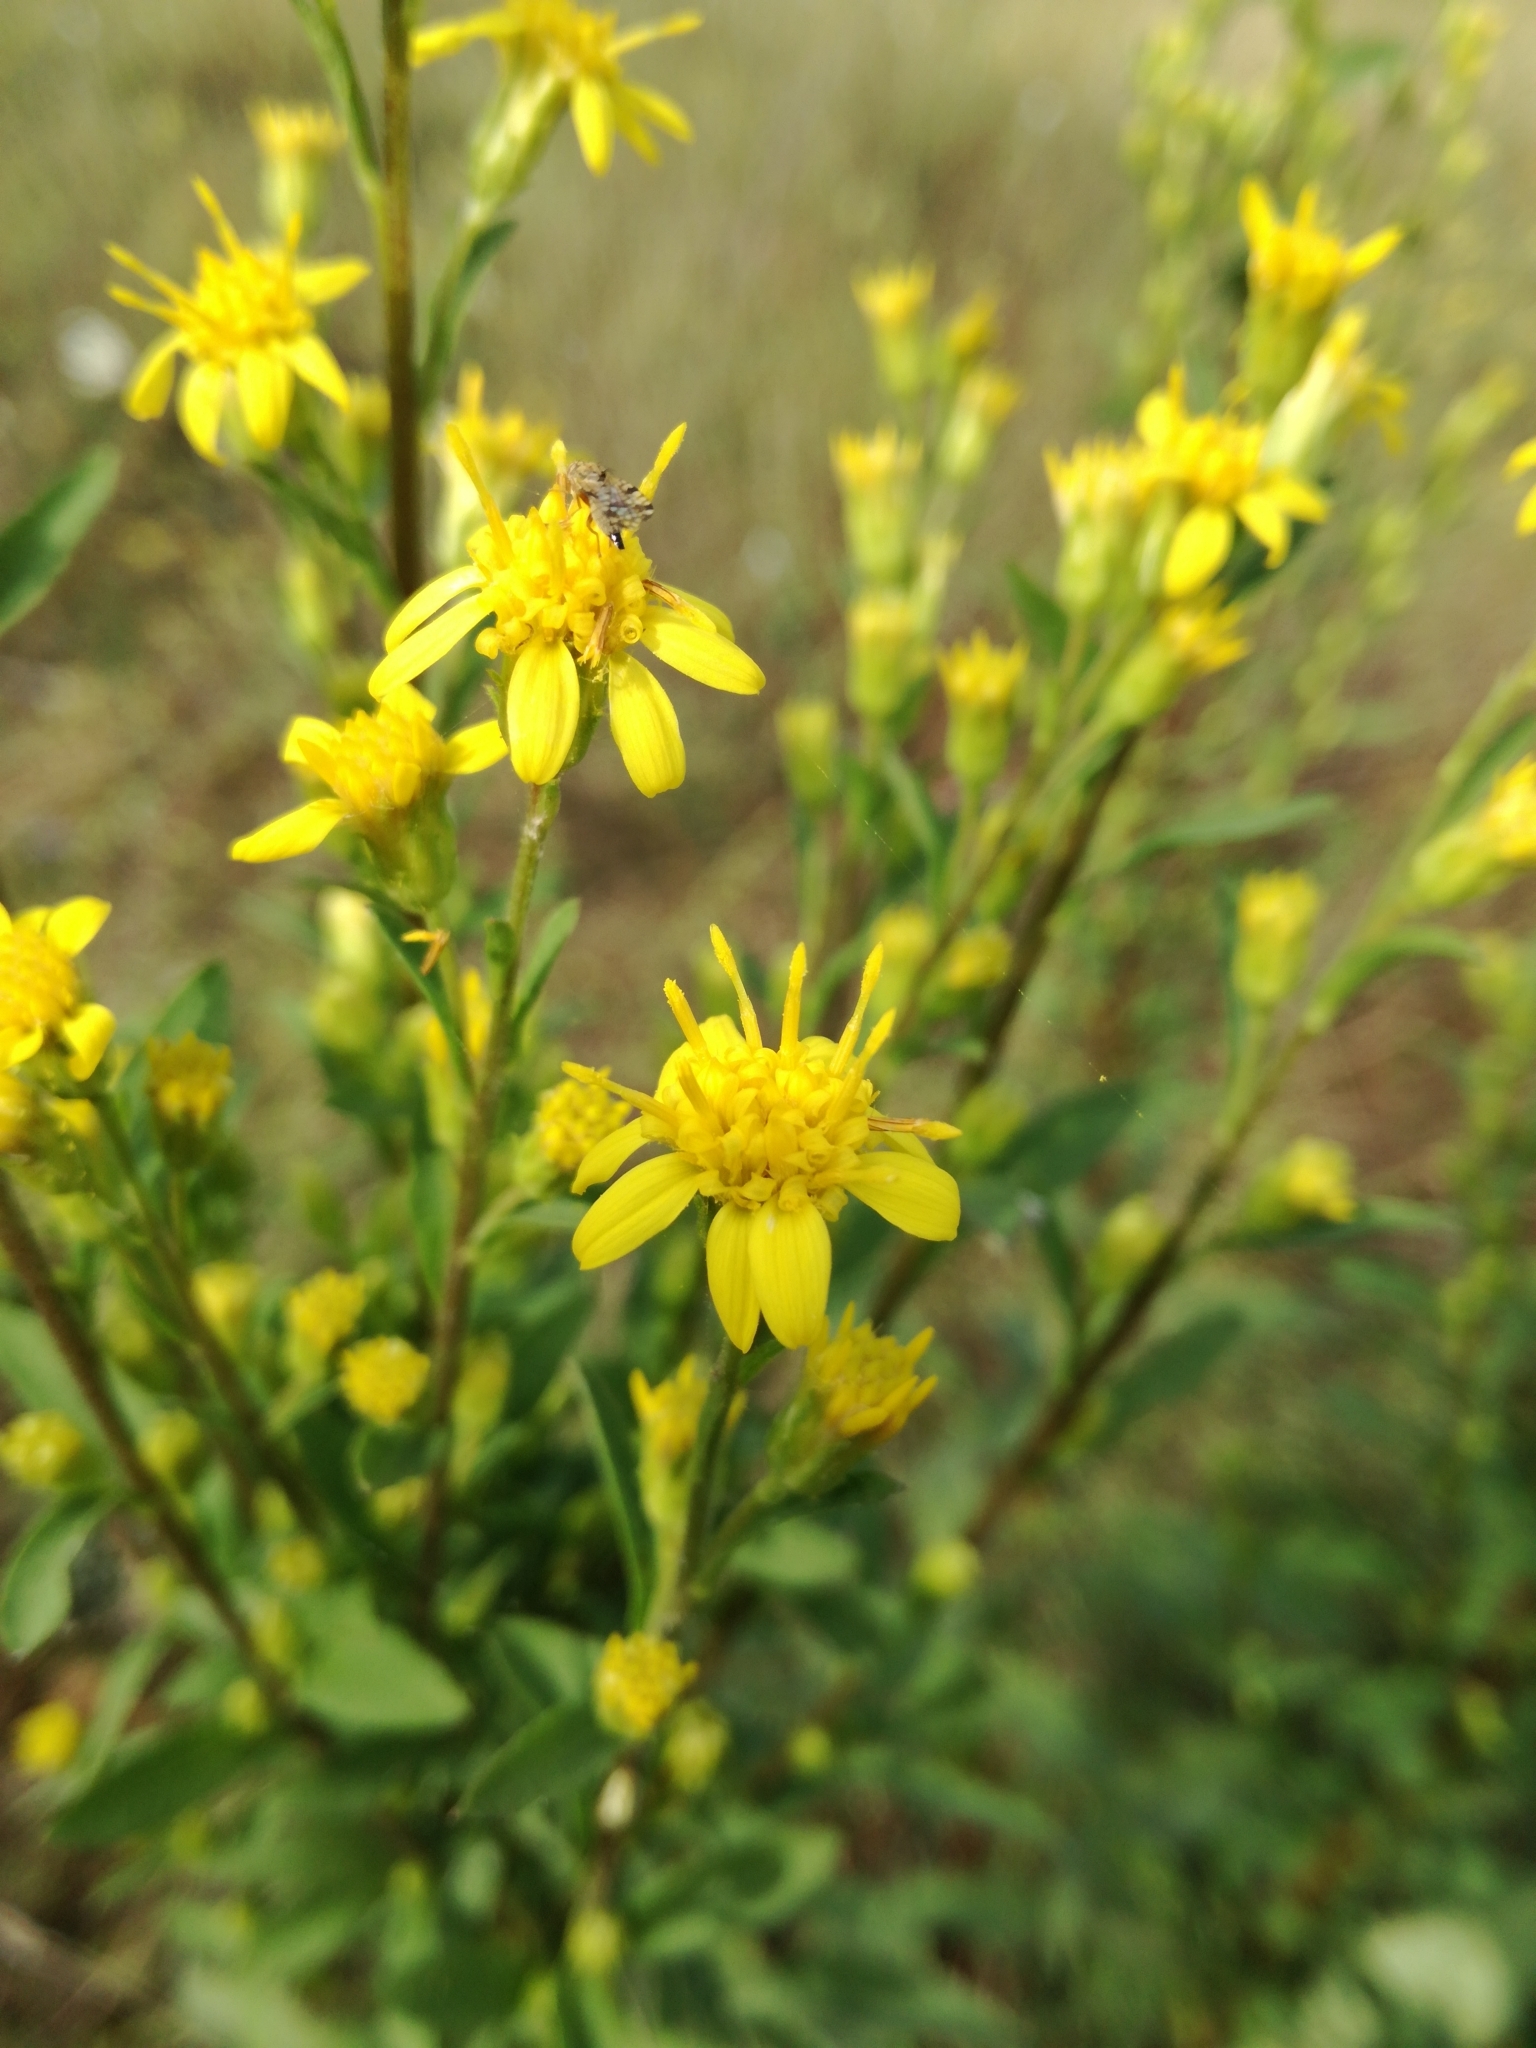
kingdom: Plantae
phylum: Tracheophyta
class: Magnoliopsida
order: Asterales
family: Asteraceae
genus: Solidago
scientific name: Solidago virgaurea
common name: Goldenrod
